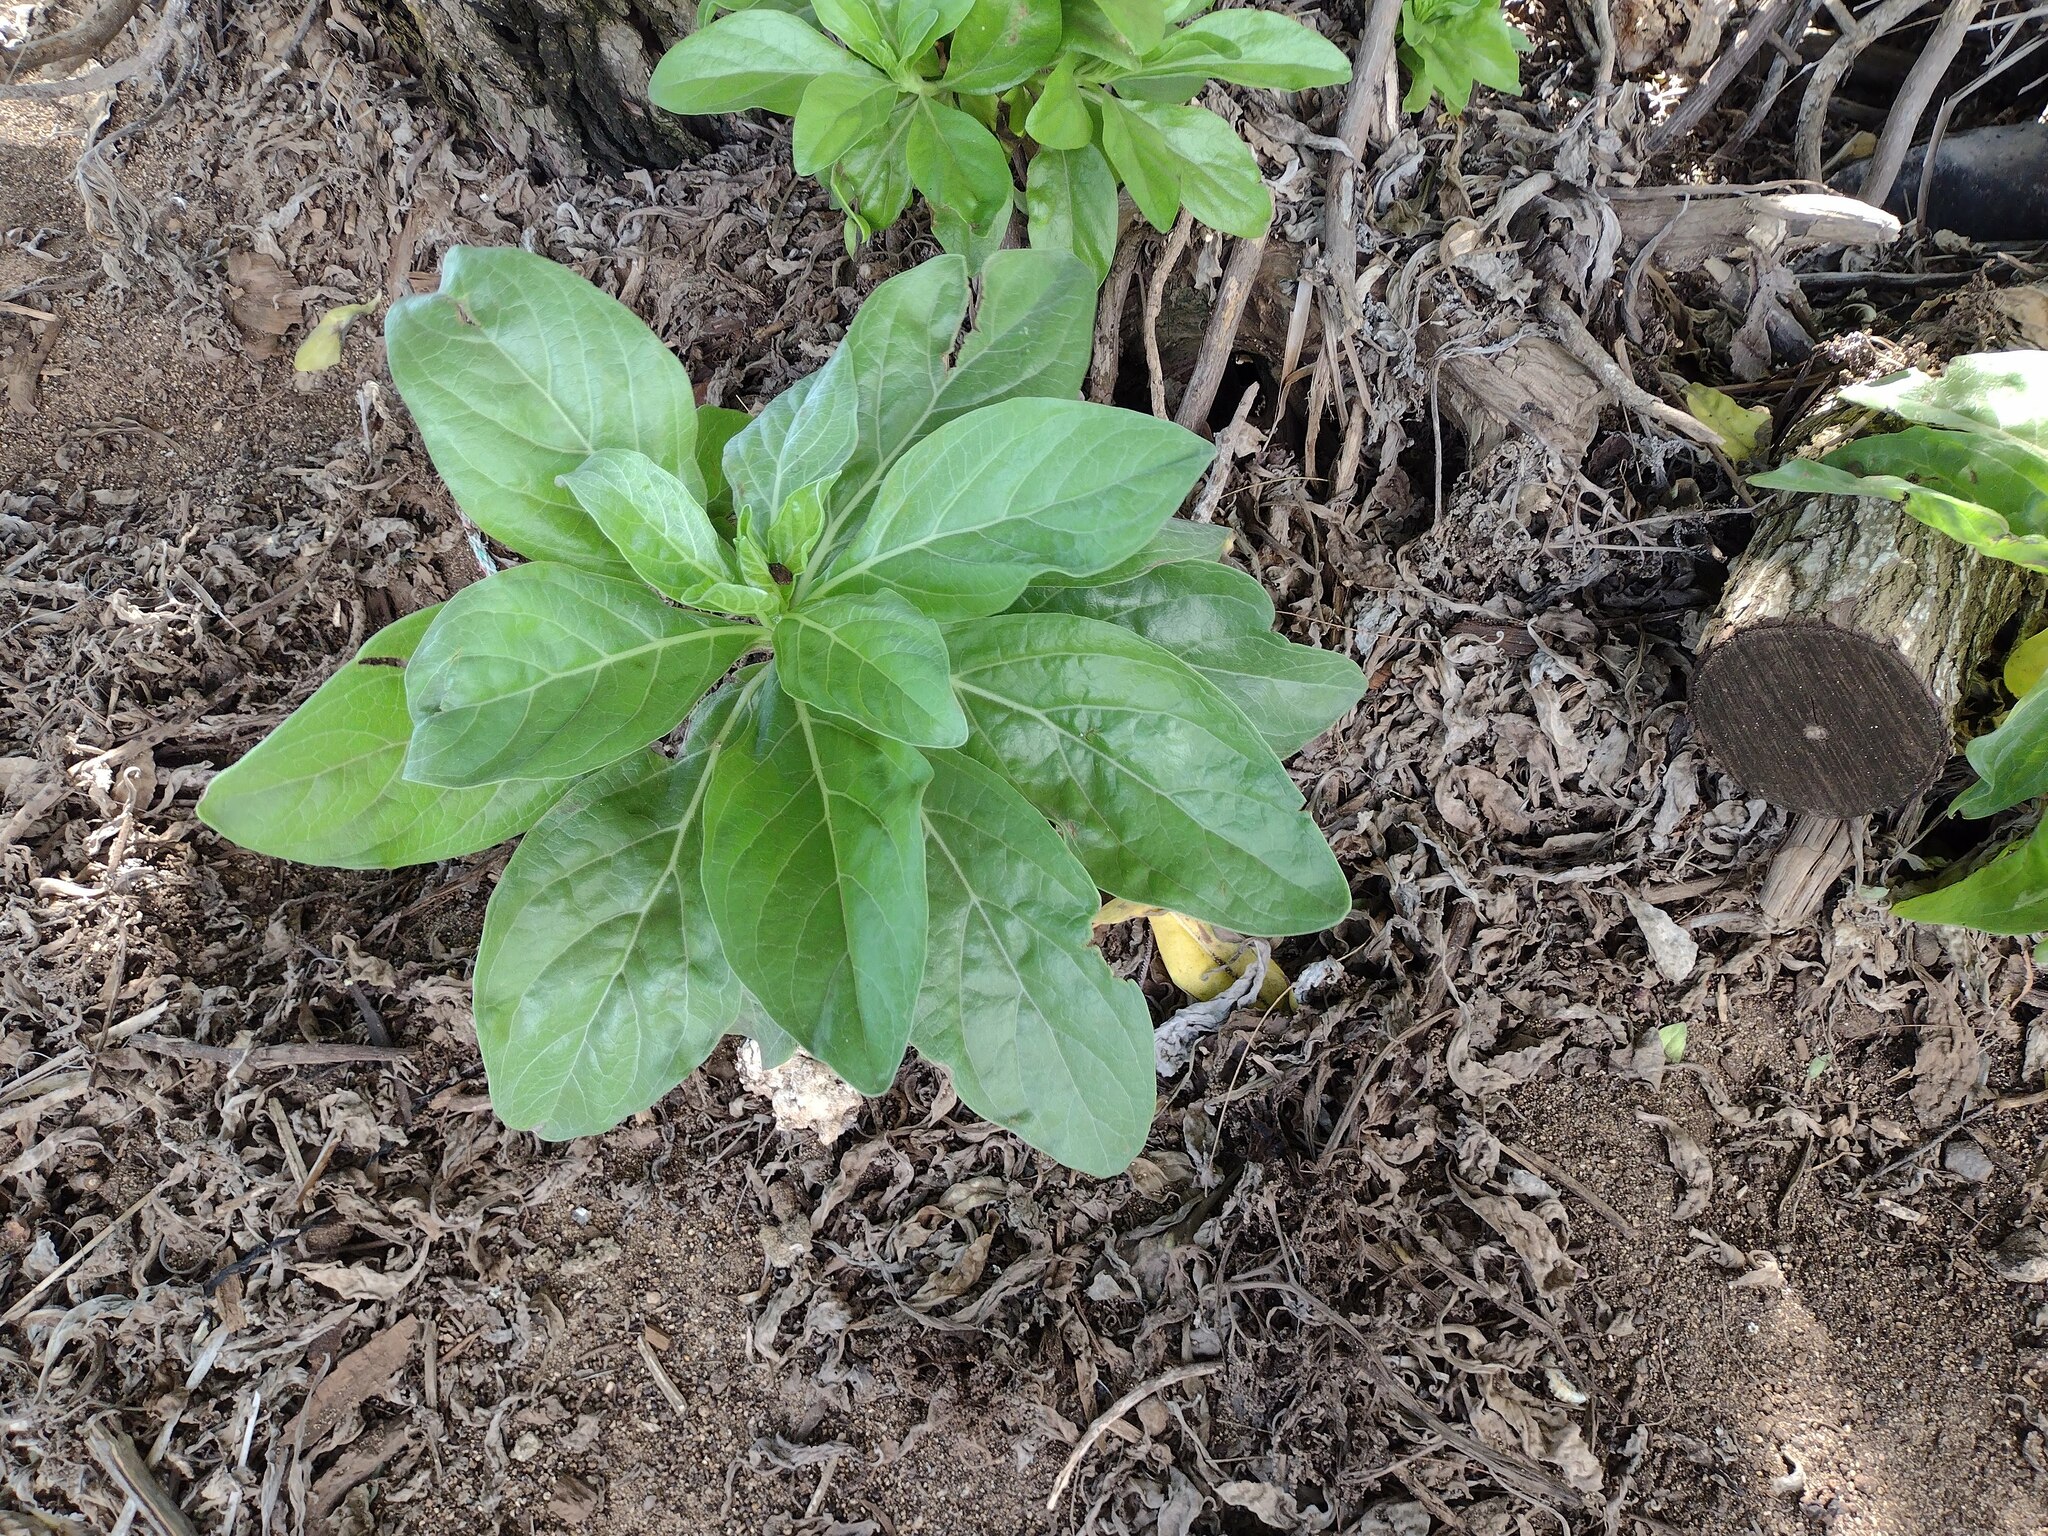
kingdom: Plantae
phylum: Tracheophyta
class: Magnoliopsida
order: Boraginales
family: Heliotropiaceae
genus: Heliotropium
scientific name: Heliotropium velutinum
